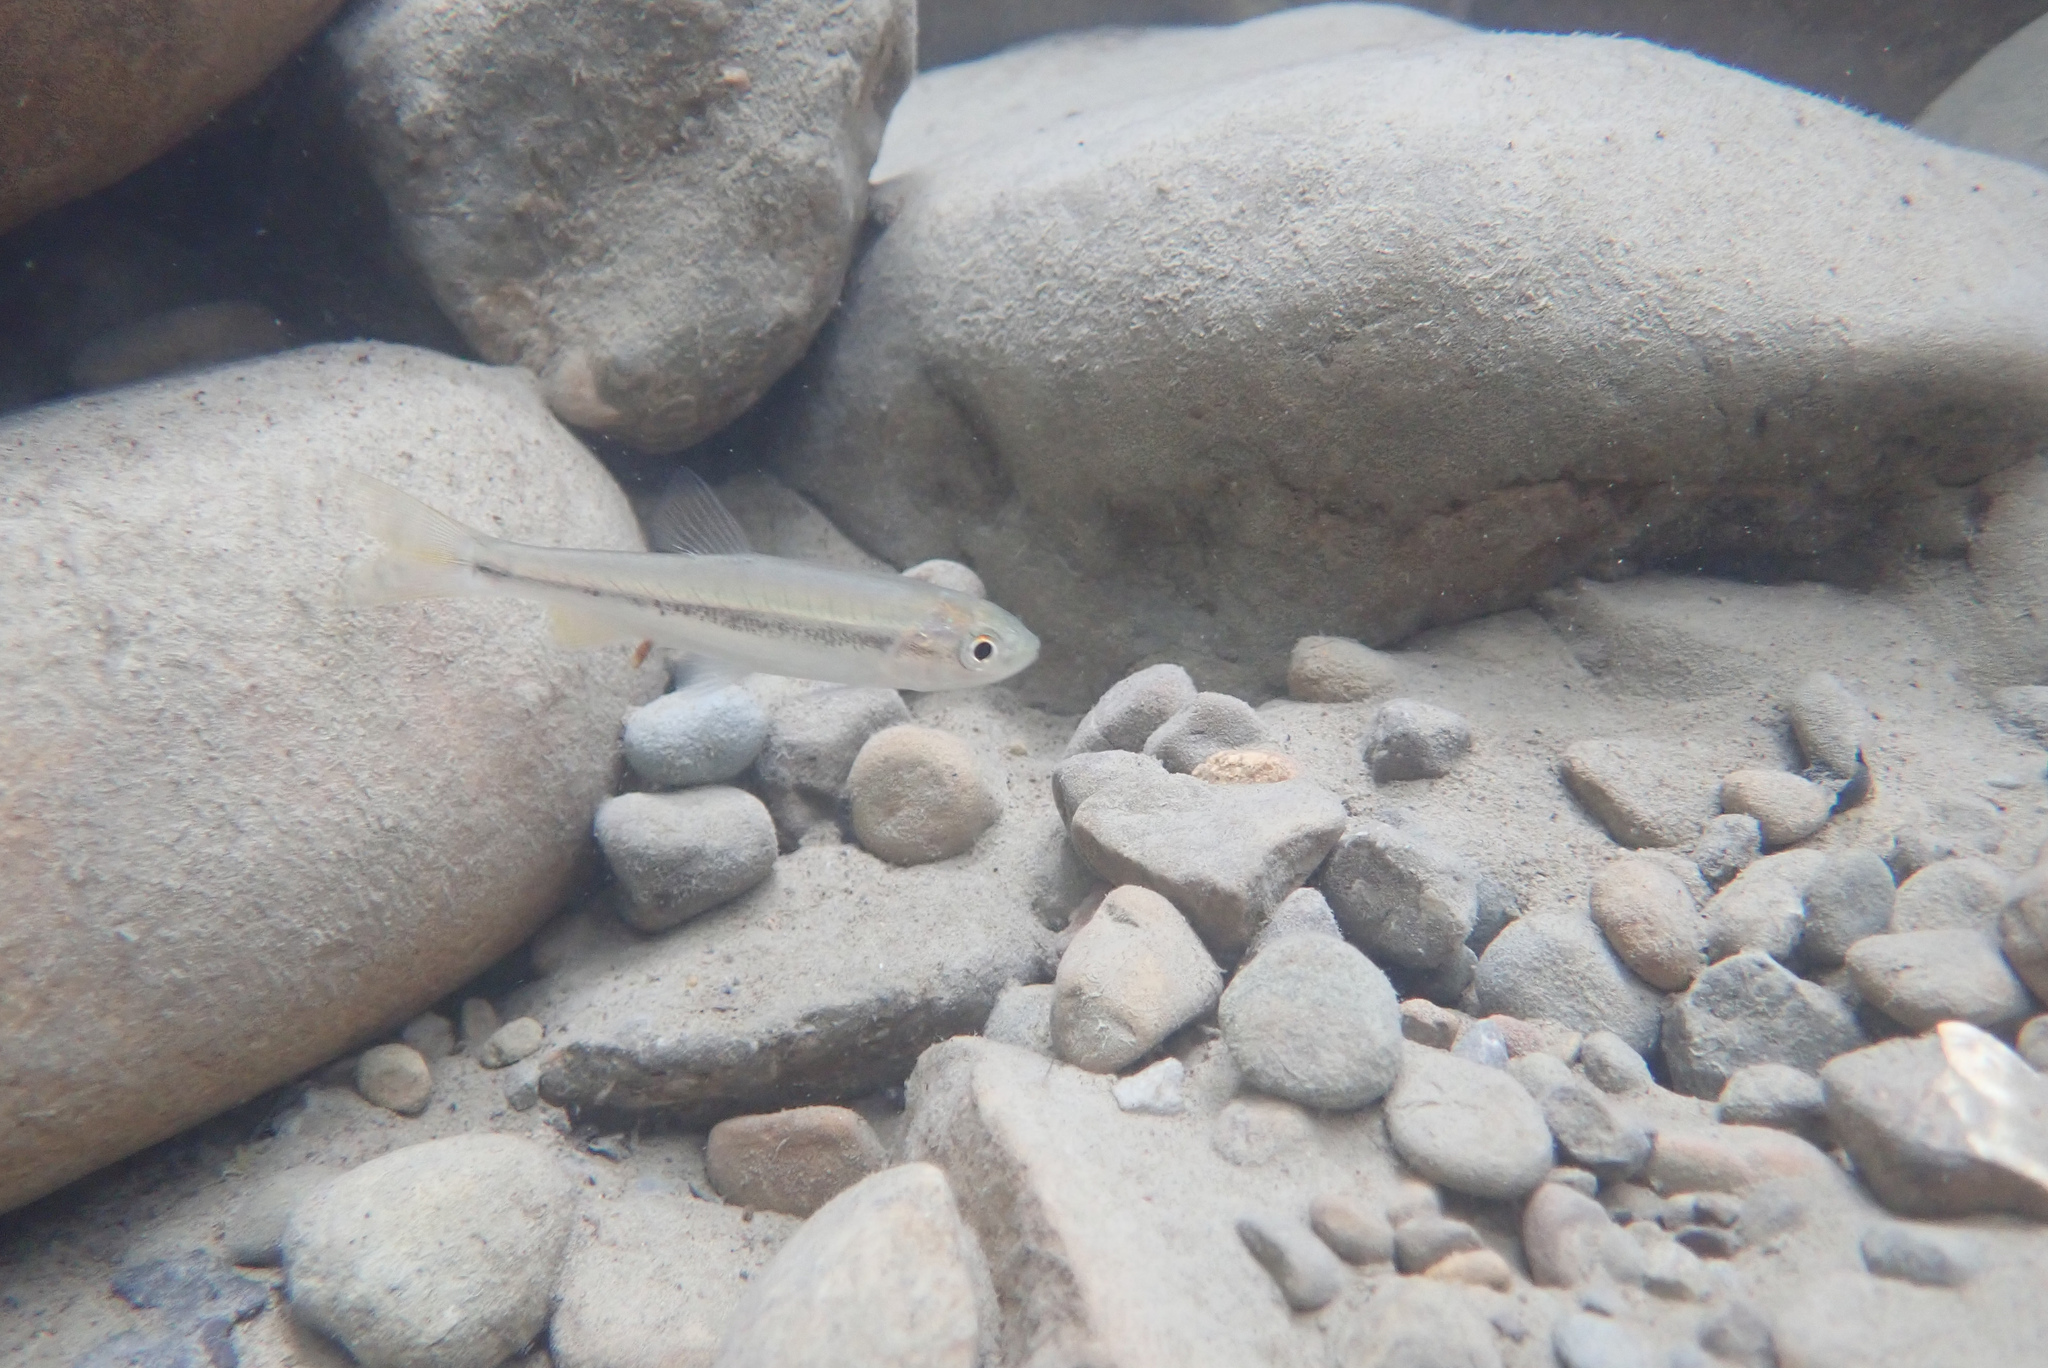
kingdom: Animalia
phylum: Chordata
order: Cypriniformes
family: Cyprinidae
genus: Candidia
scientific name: Candidia barbata
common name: Lake candidus dace
